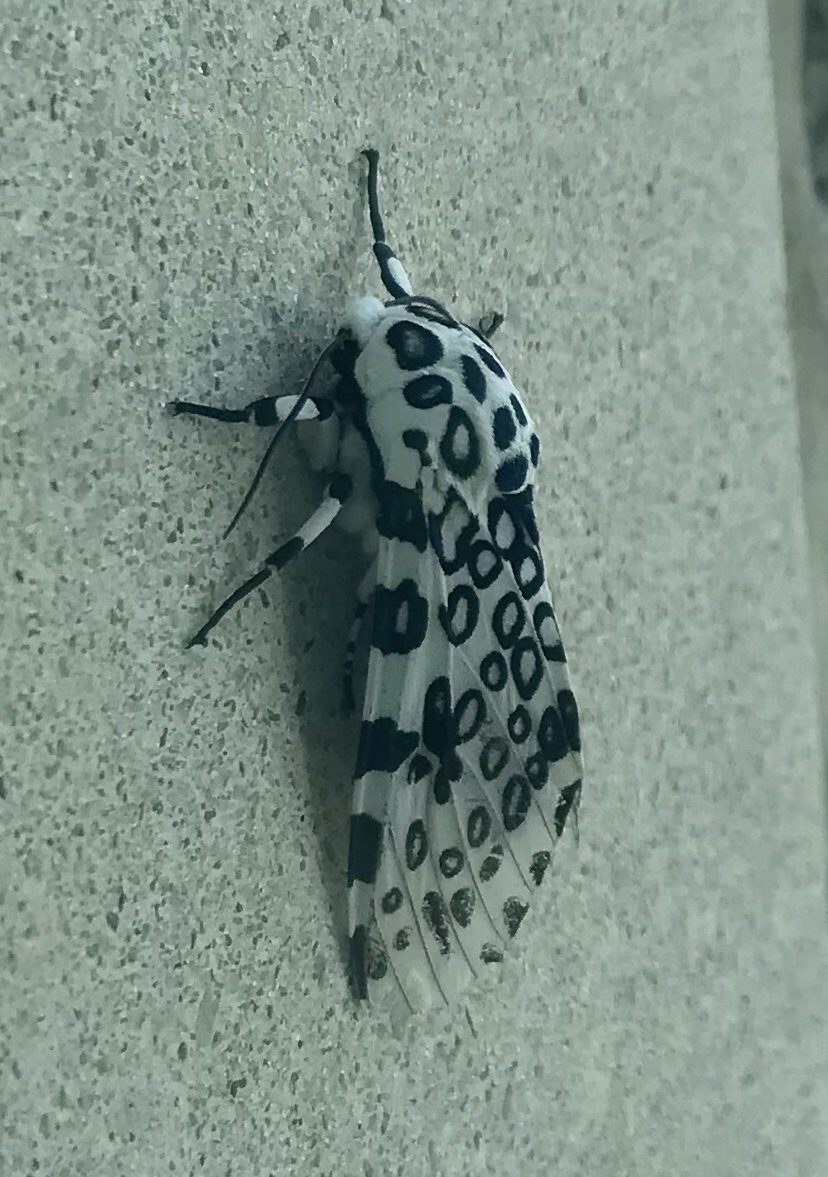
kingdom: Animalia
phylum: Arthropoda
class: Insecta
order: Lepidoptera
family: Erebidae
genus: Hypercompe
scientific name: Hypercompe scribonia
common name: Giant leopard moth
